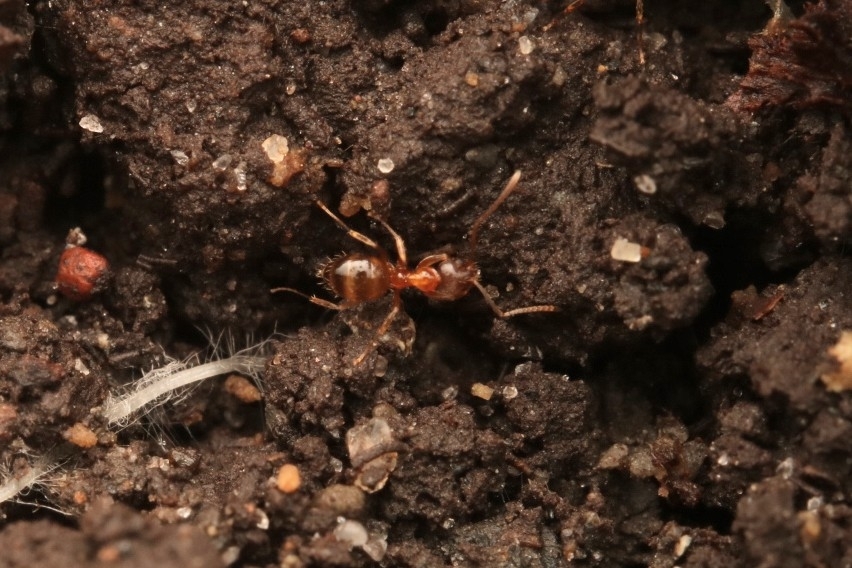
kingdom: Animalia
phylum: Arthropoda
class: Insecta
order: Hymenoptera
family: Formicidae
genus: Paratrechina
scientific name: Paratrechina flavipes
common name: Eastern asian formicine ant
